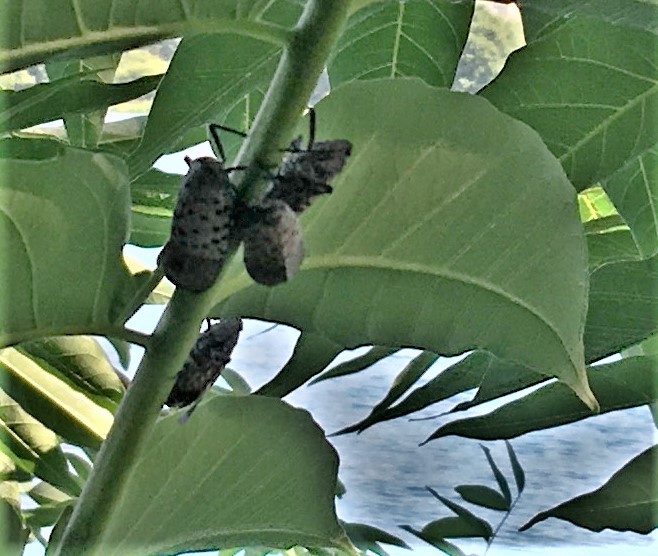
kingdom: Animalia
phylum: Arthropoda
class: Insecta
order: Hemiptera
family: Fulgoridae
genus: Lycorma
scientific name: Lycorma delicatula
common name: Spotted lanternfly
